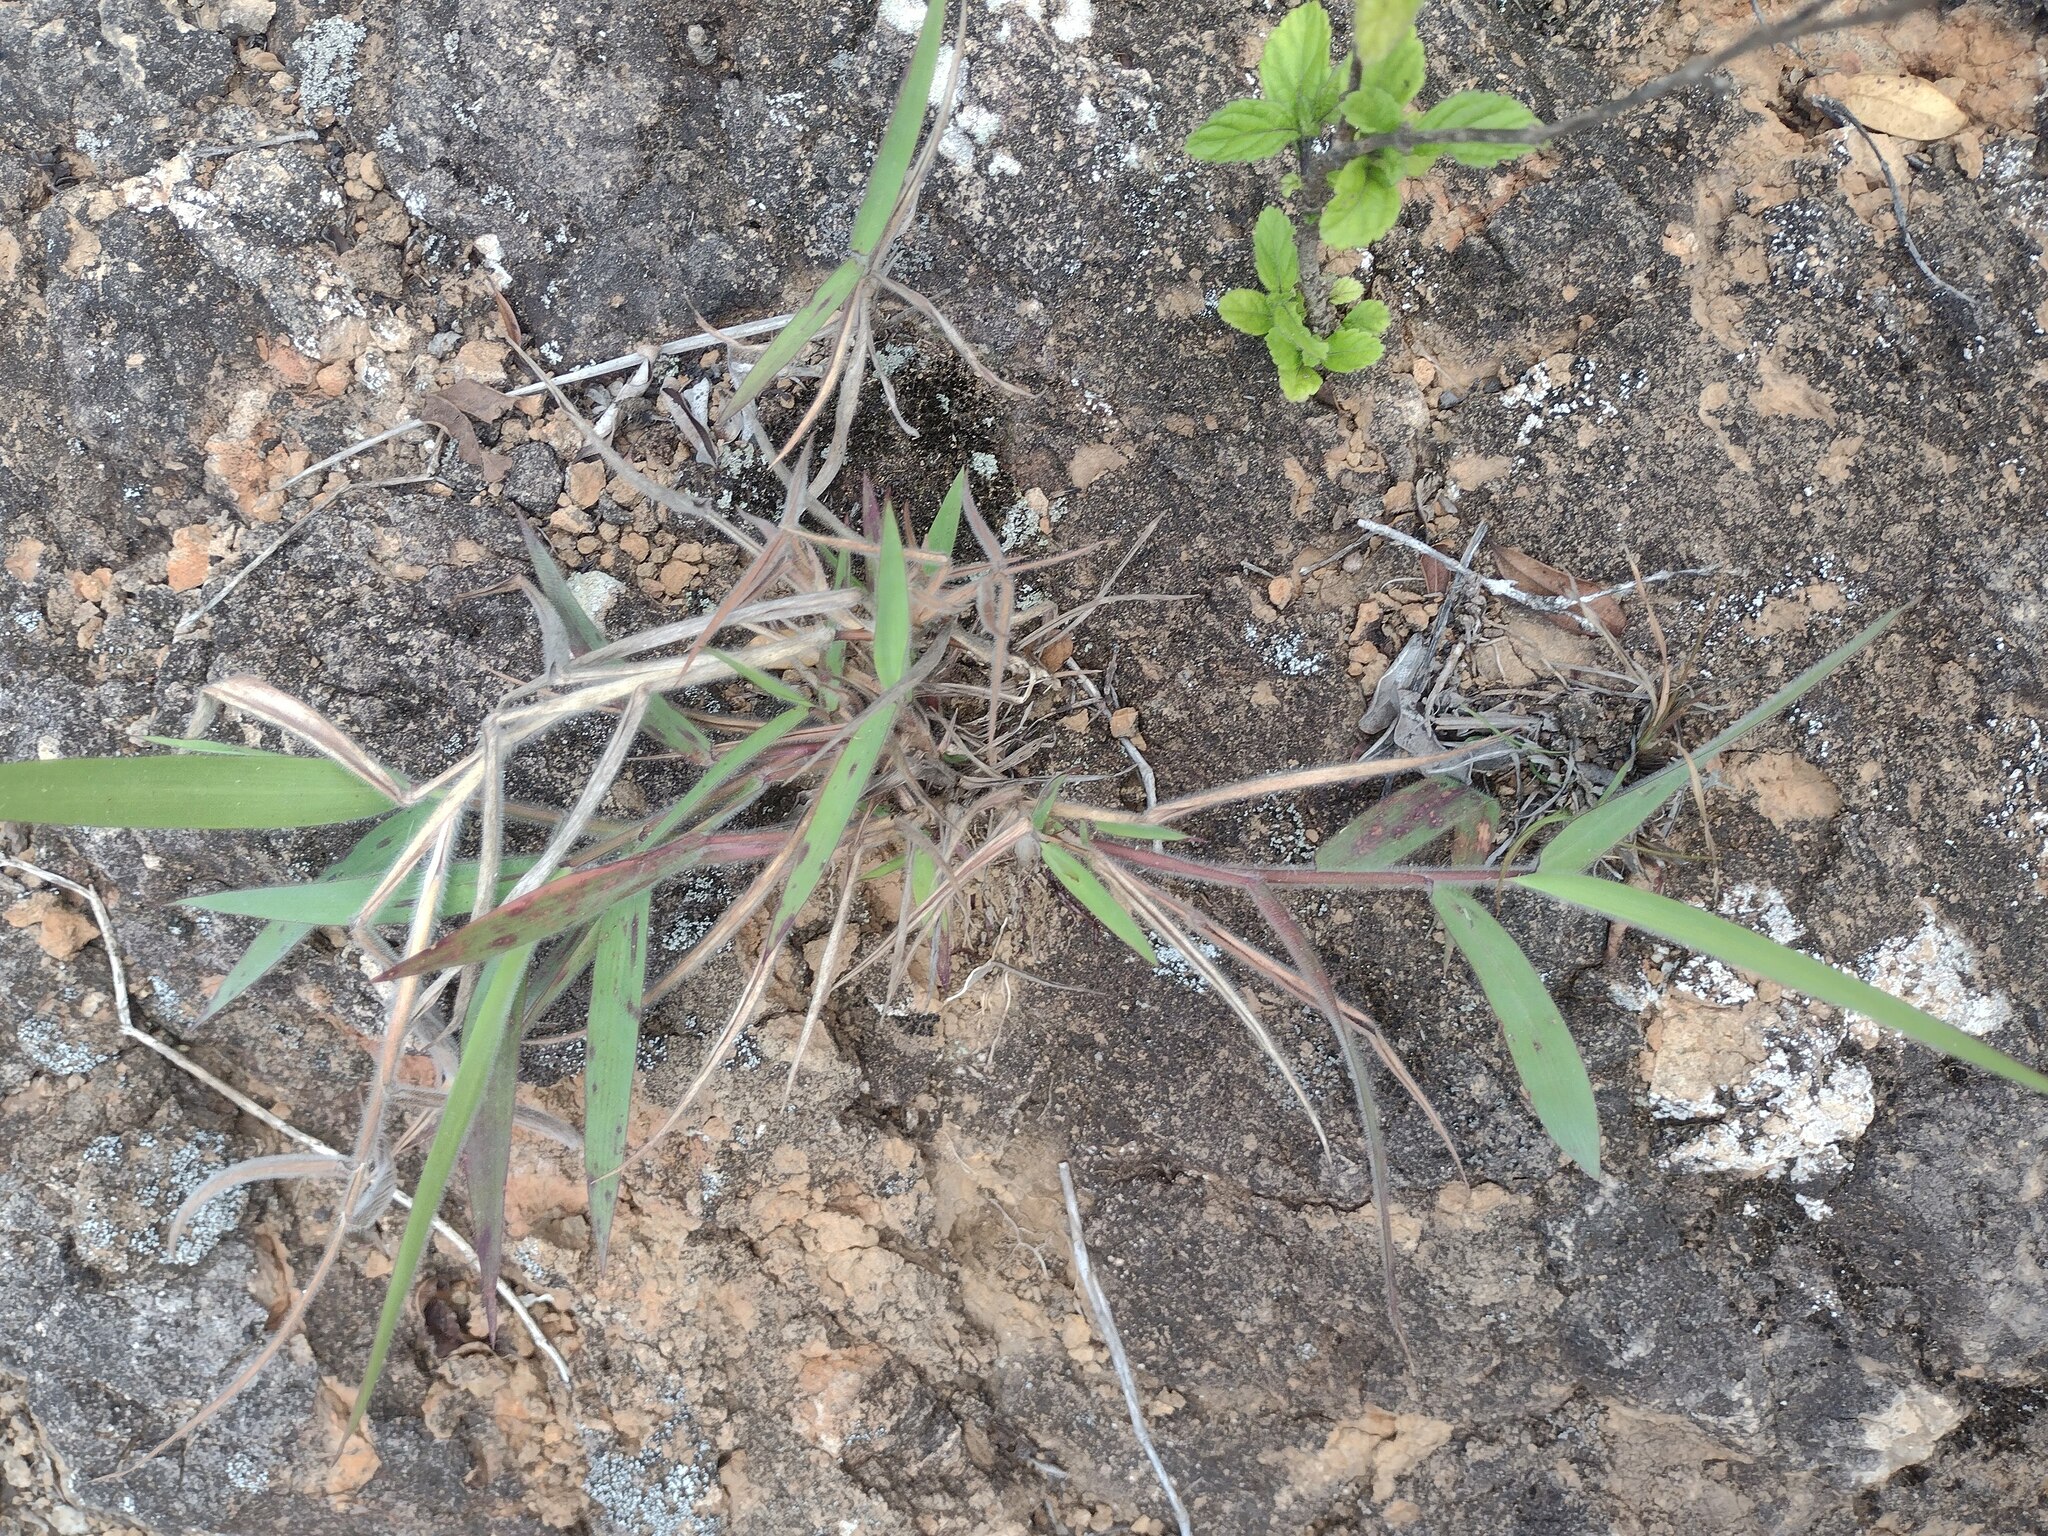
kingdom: Plantae
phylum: Tracheophyta
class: Liliopsida
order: Poales
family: Poaceae
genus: Melinis
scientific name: Melinis minutiflora
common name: Molassesgrass
